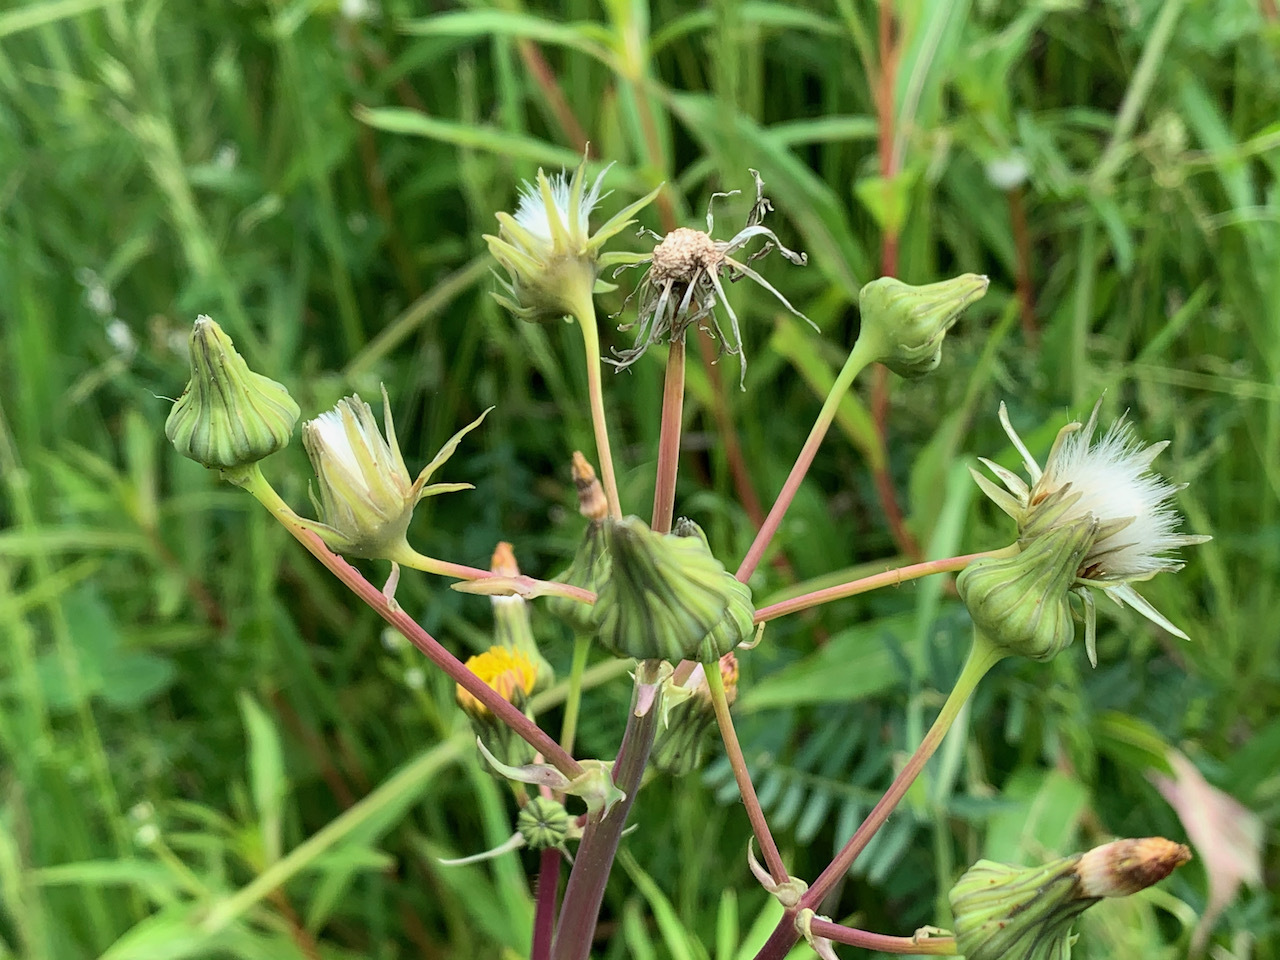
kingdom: Plantae
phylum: Tracheophyta
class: Magnoliopsida
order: Asterales
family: Asteraceae
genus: Sonchus
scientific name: Sonchus asper
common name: Prickly sow-thistle
